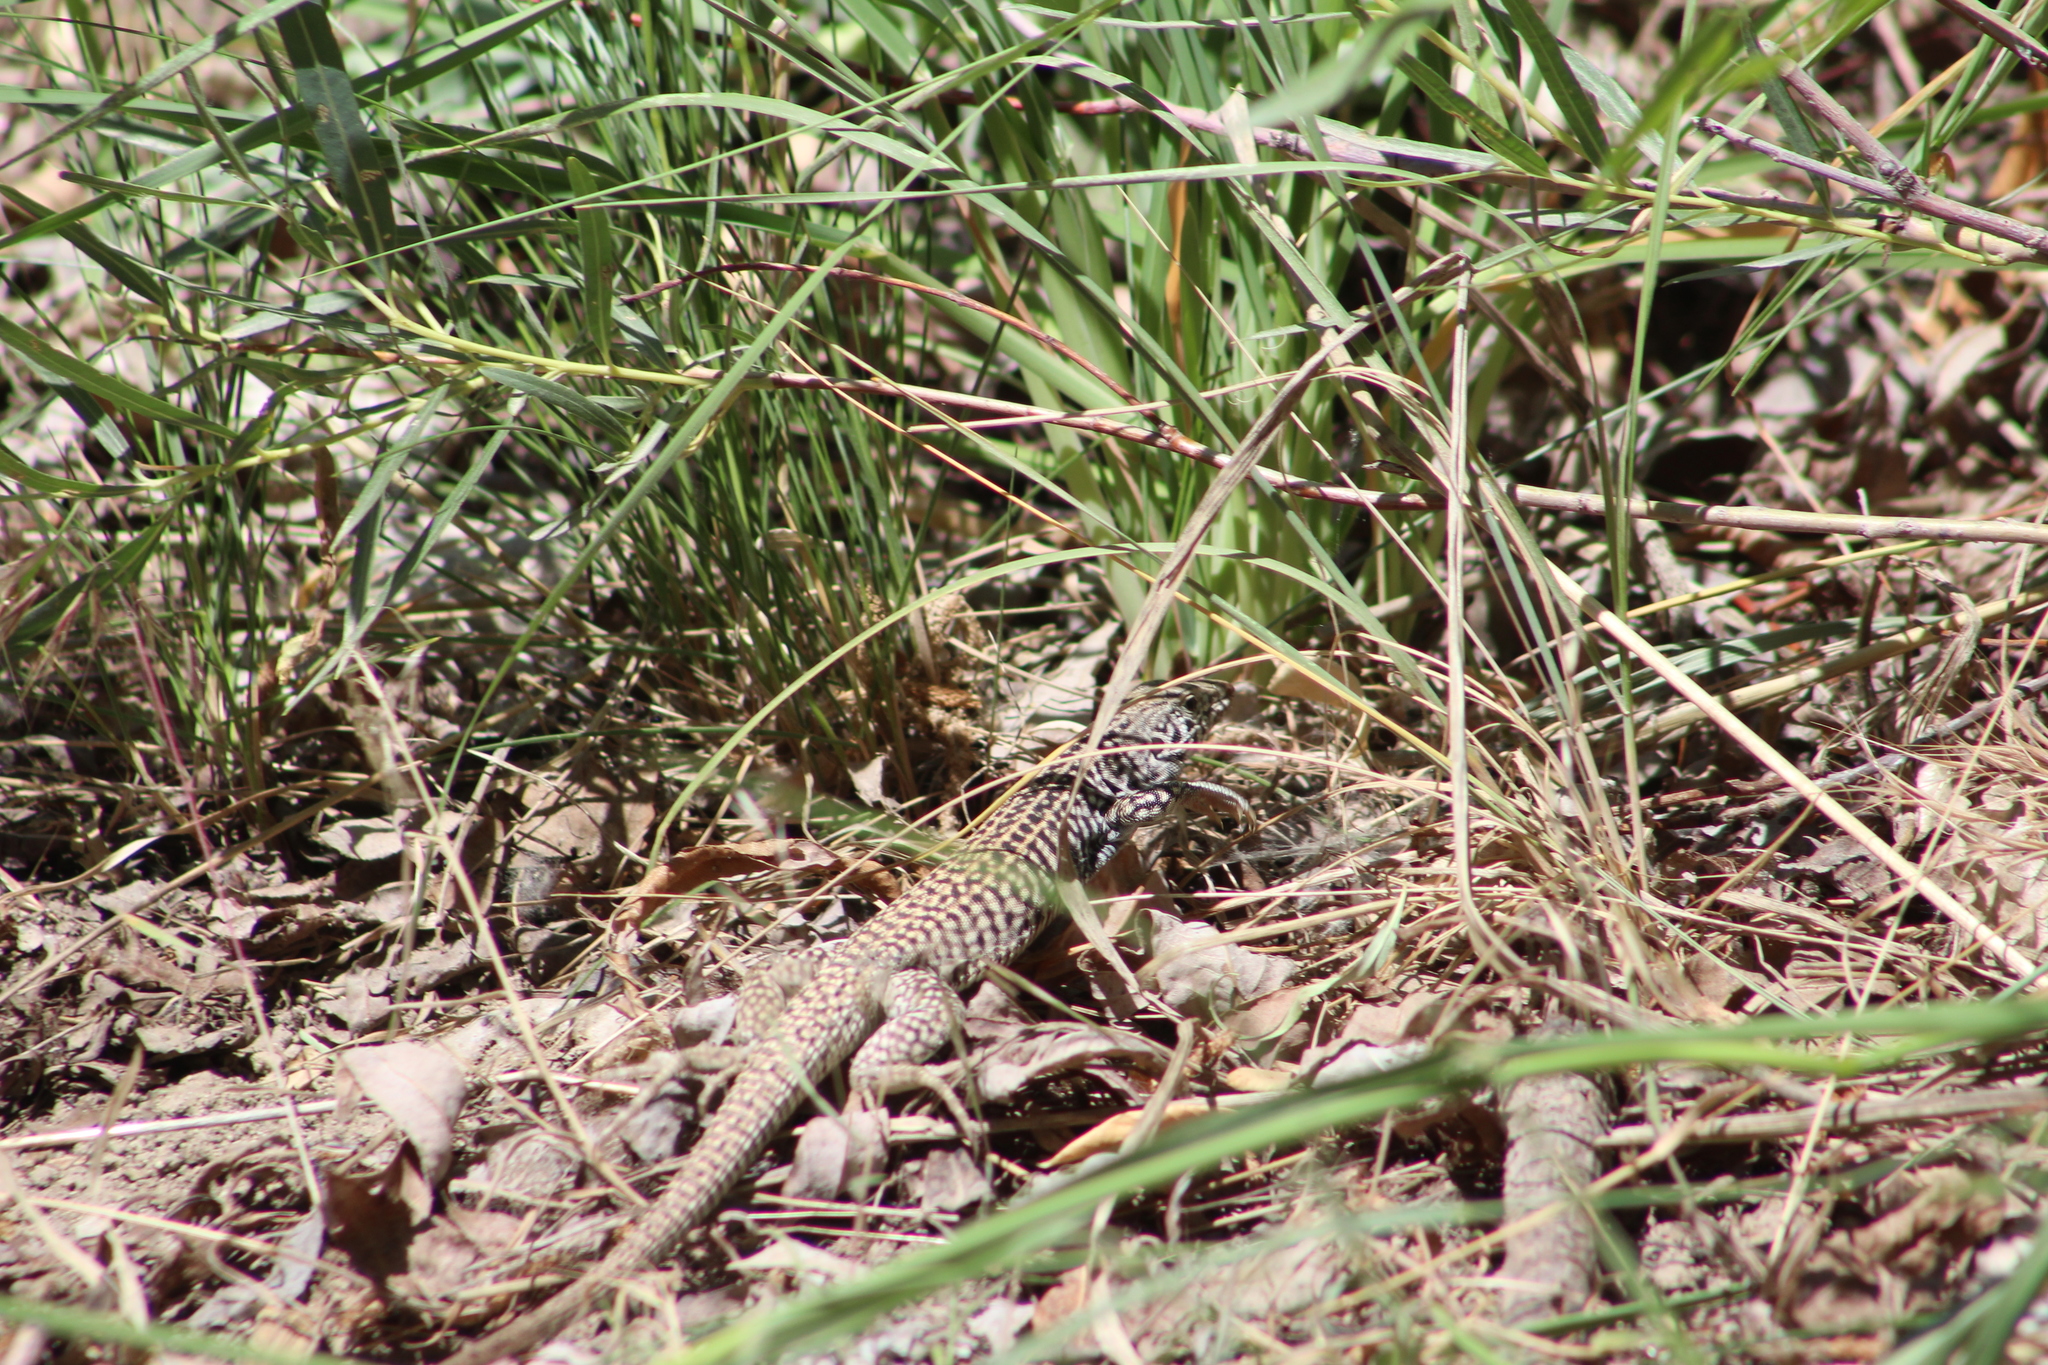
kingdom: Animalia
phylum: Chordata
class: Squamata
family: Teiidae
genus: Aspidoscelis
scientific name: Aspidoscelis tigris
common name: Tiger whiptail
